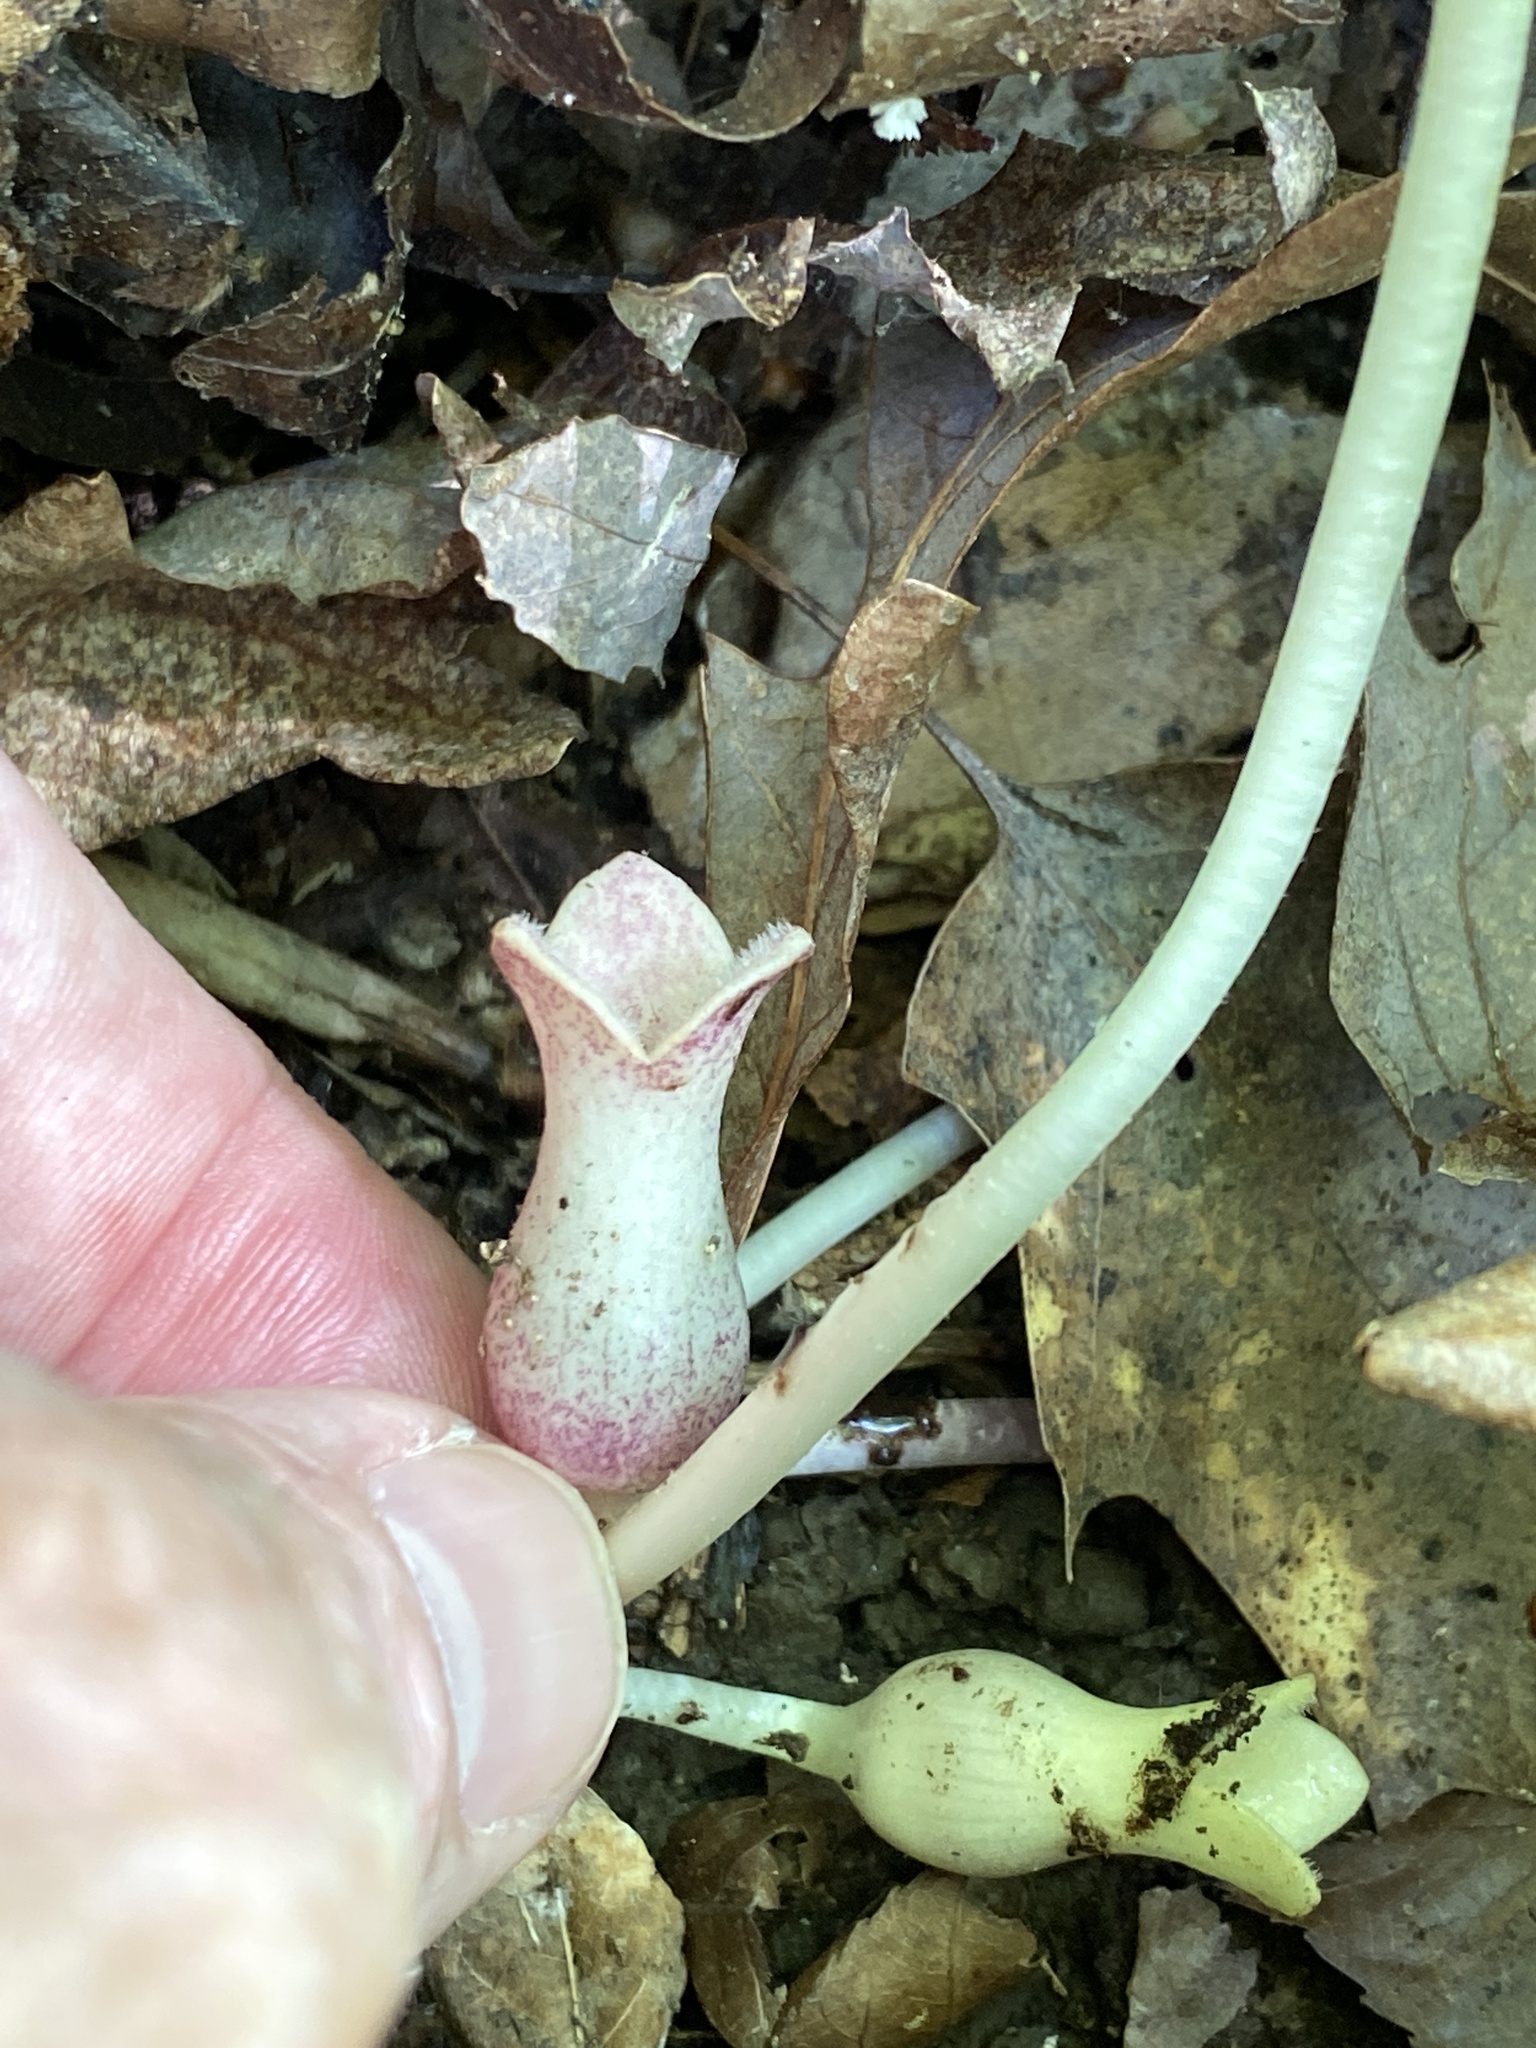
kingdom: Plantae
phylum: Tracheophyta
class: Magnoliopsida
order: Piperales
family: Aristolochiaceae
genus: Hexastylis
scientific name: Hexastylis arifolia
